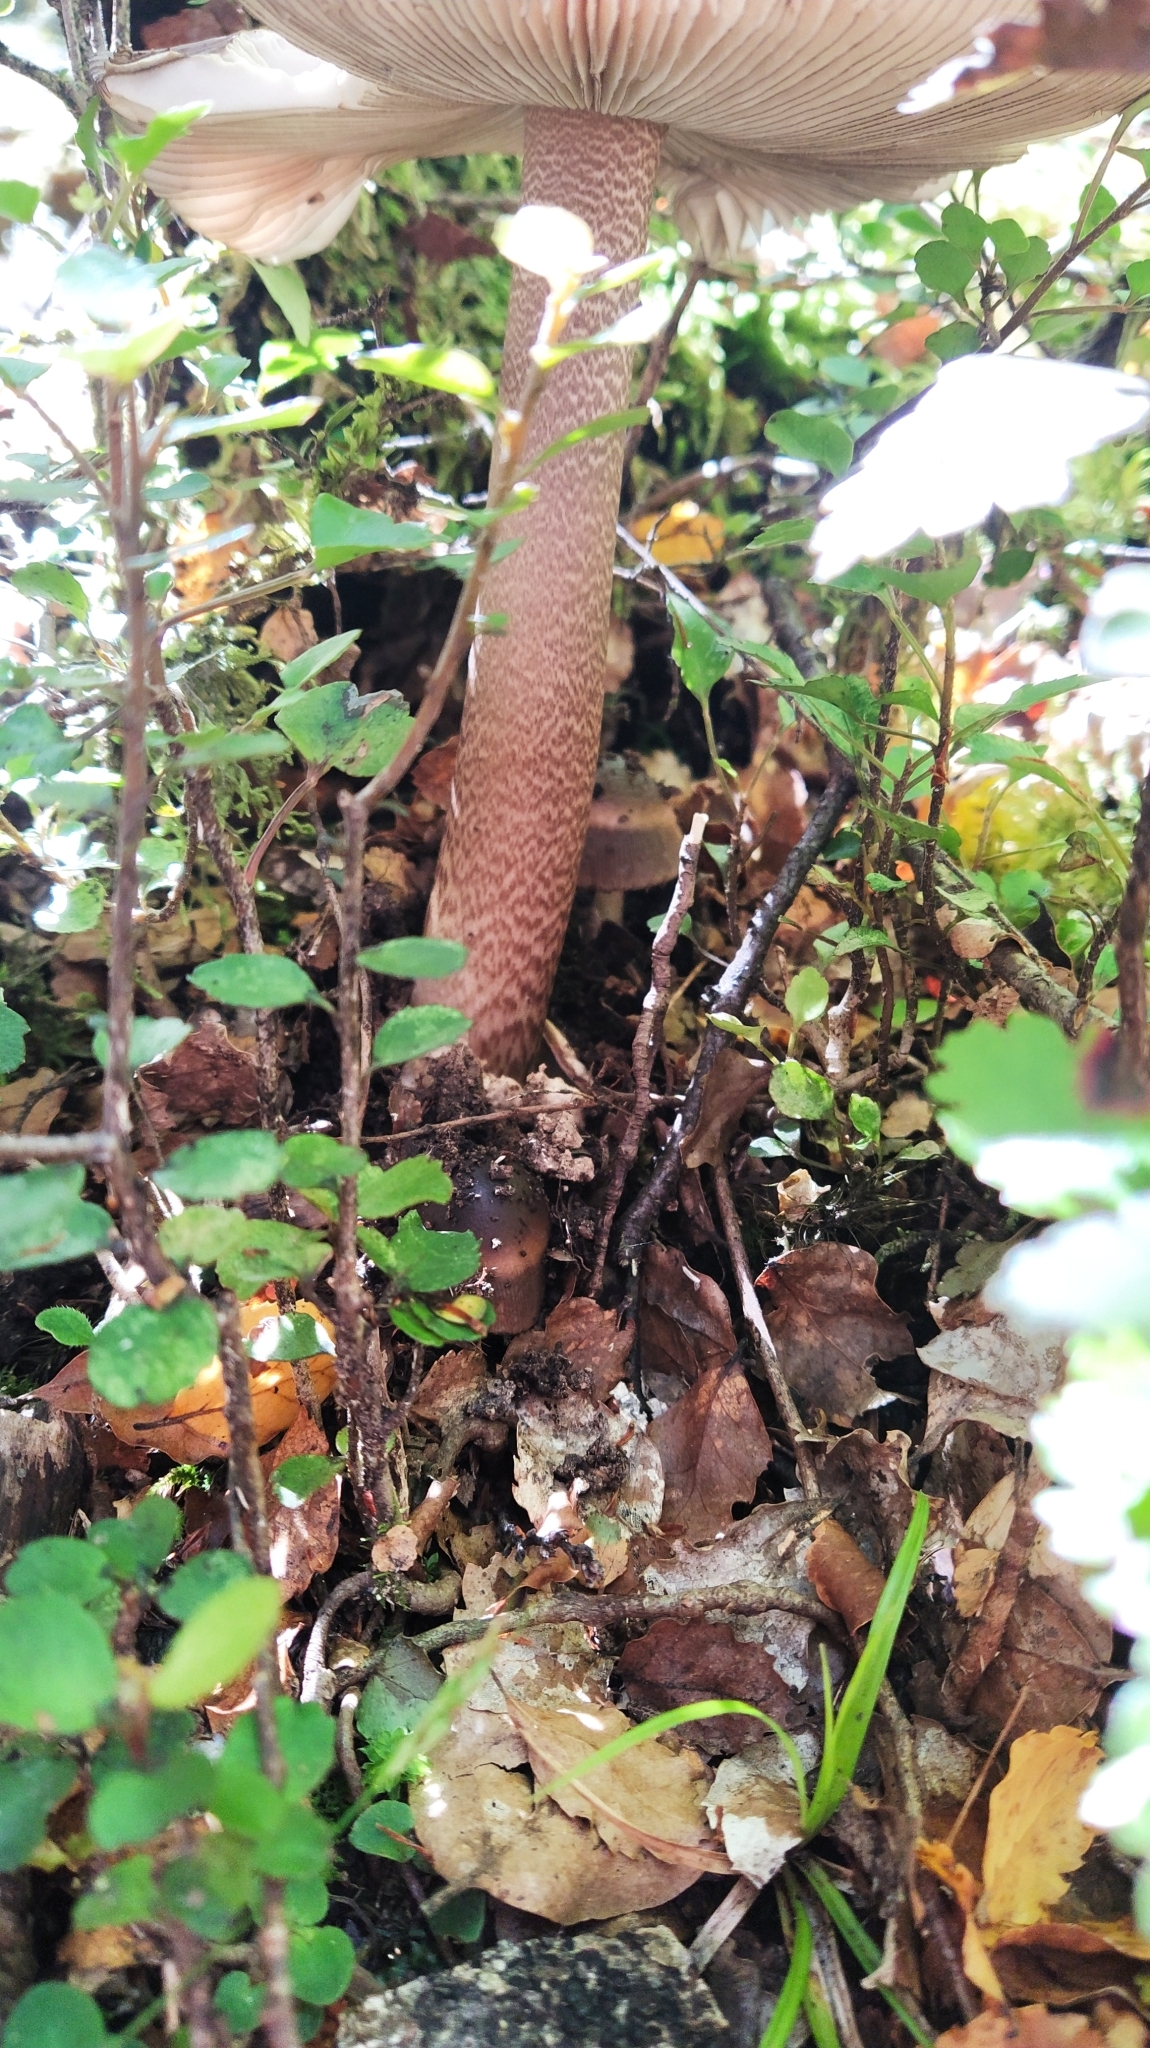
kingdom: Fungi
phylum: Basidiomycota
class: Agaricomycetes
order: Agaricales
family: Amanitaceae
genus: Amanita
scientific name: Amanita pekeoides
